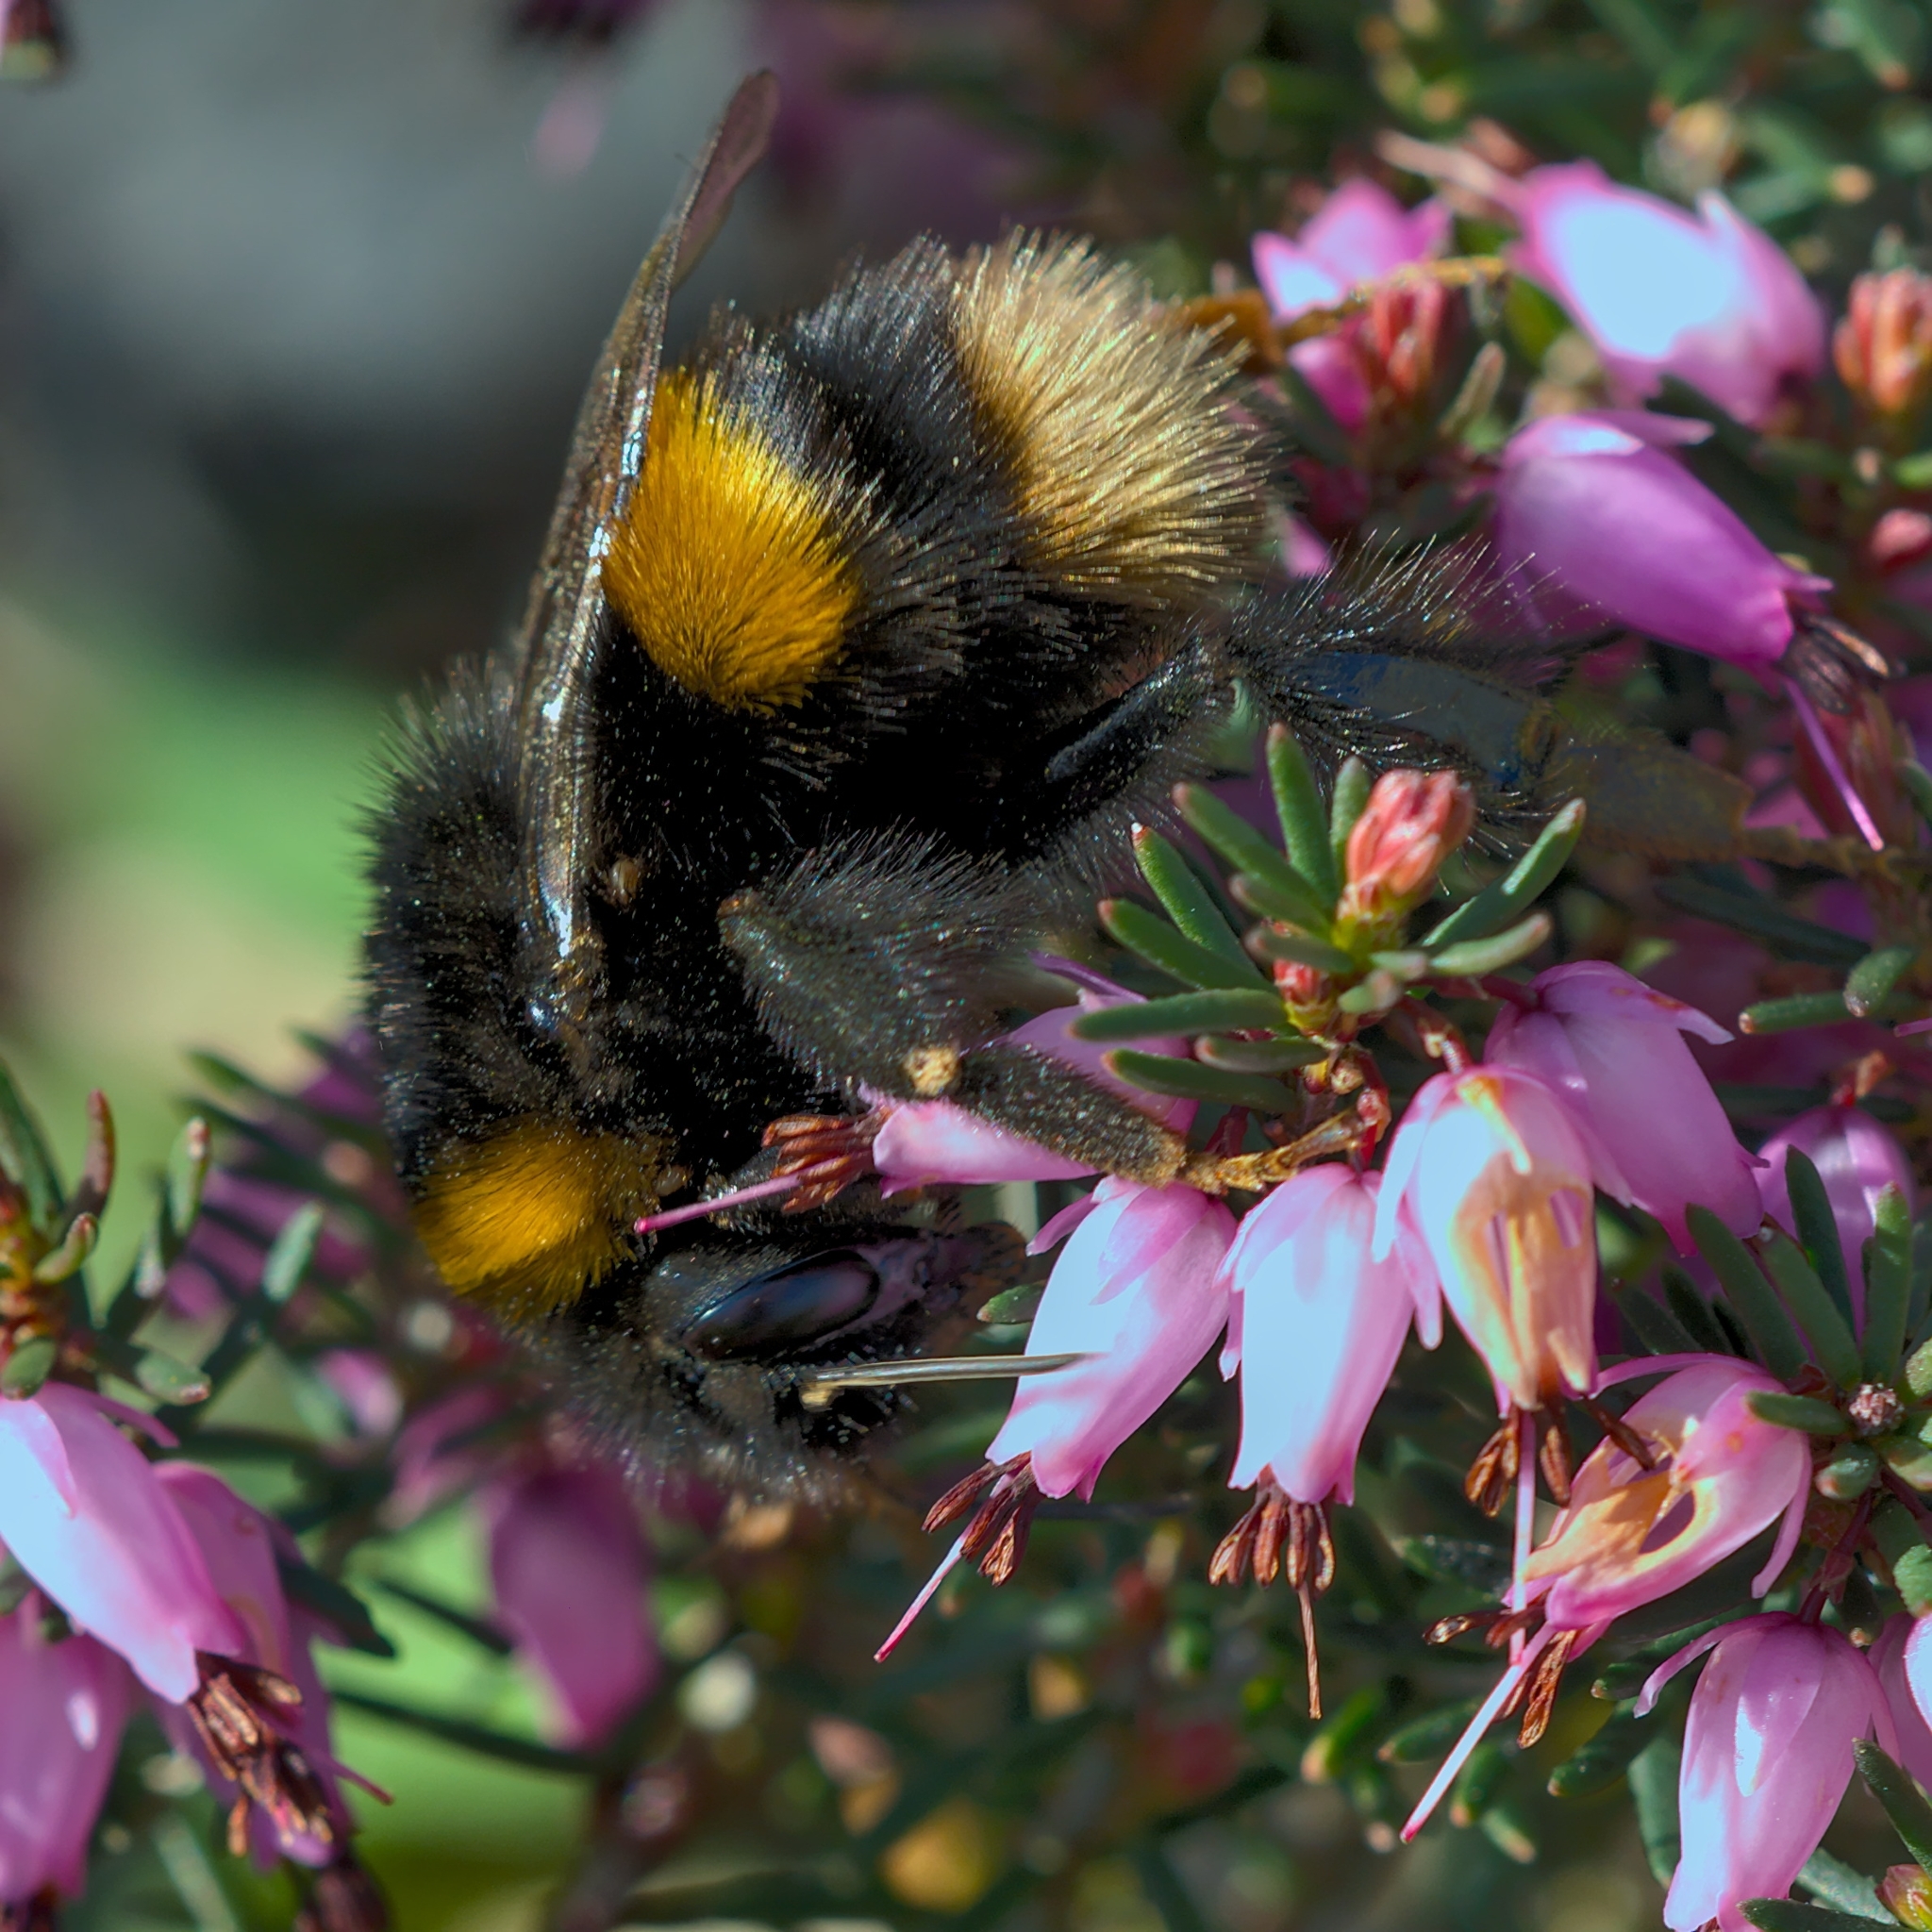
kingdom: Animalia
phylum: Arthropoda
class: Insecta
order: Hymenoptera
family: Apidae
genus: Bombus
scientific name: Bombus terrestris
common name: Buff-tailed bumblebee
